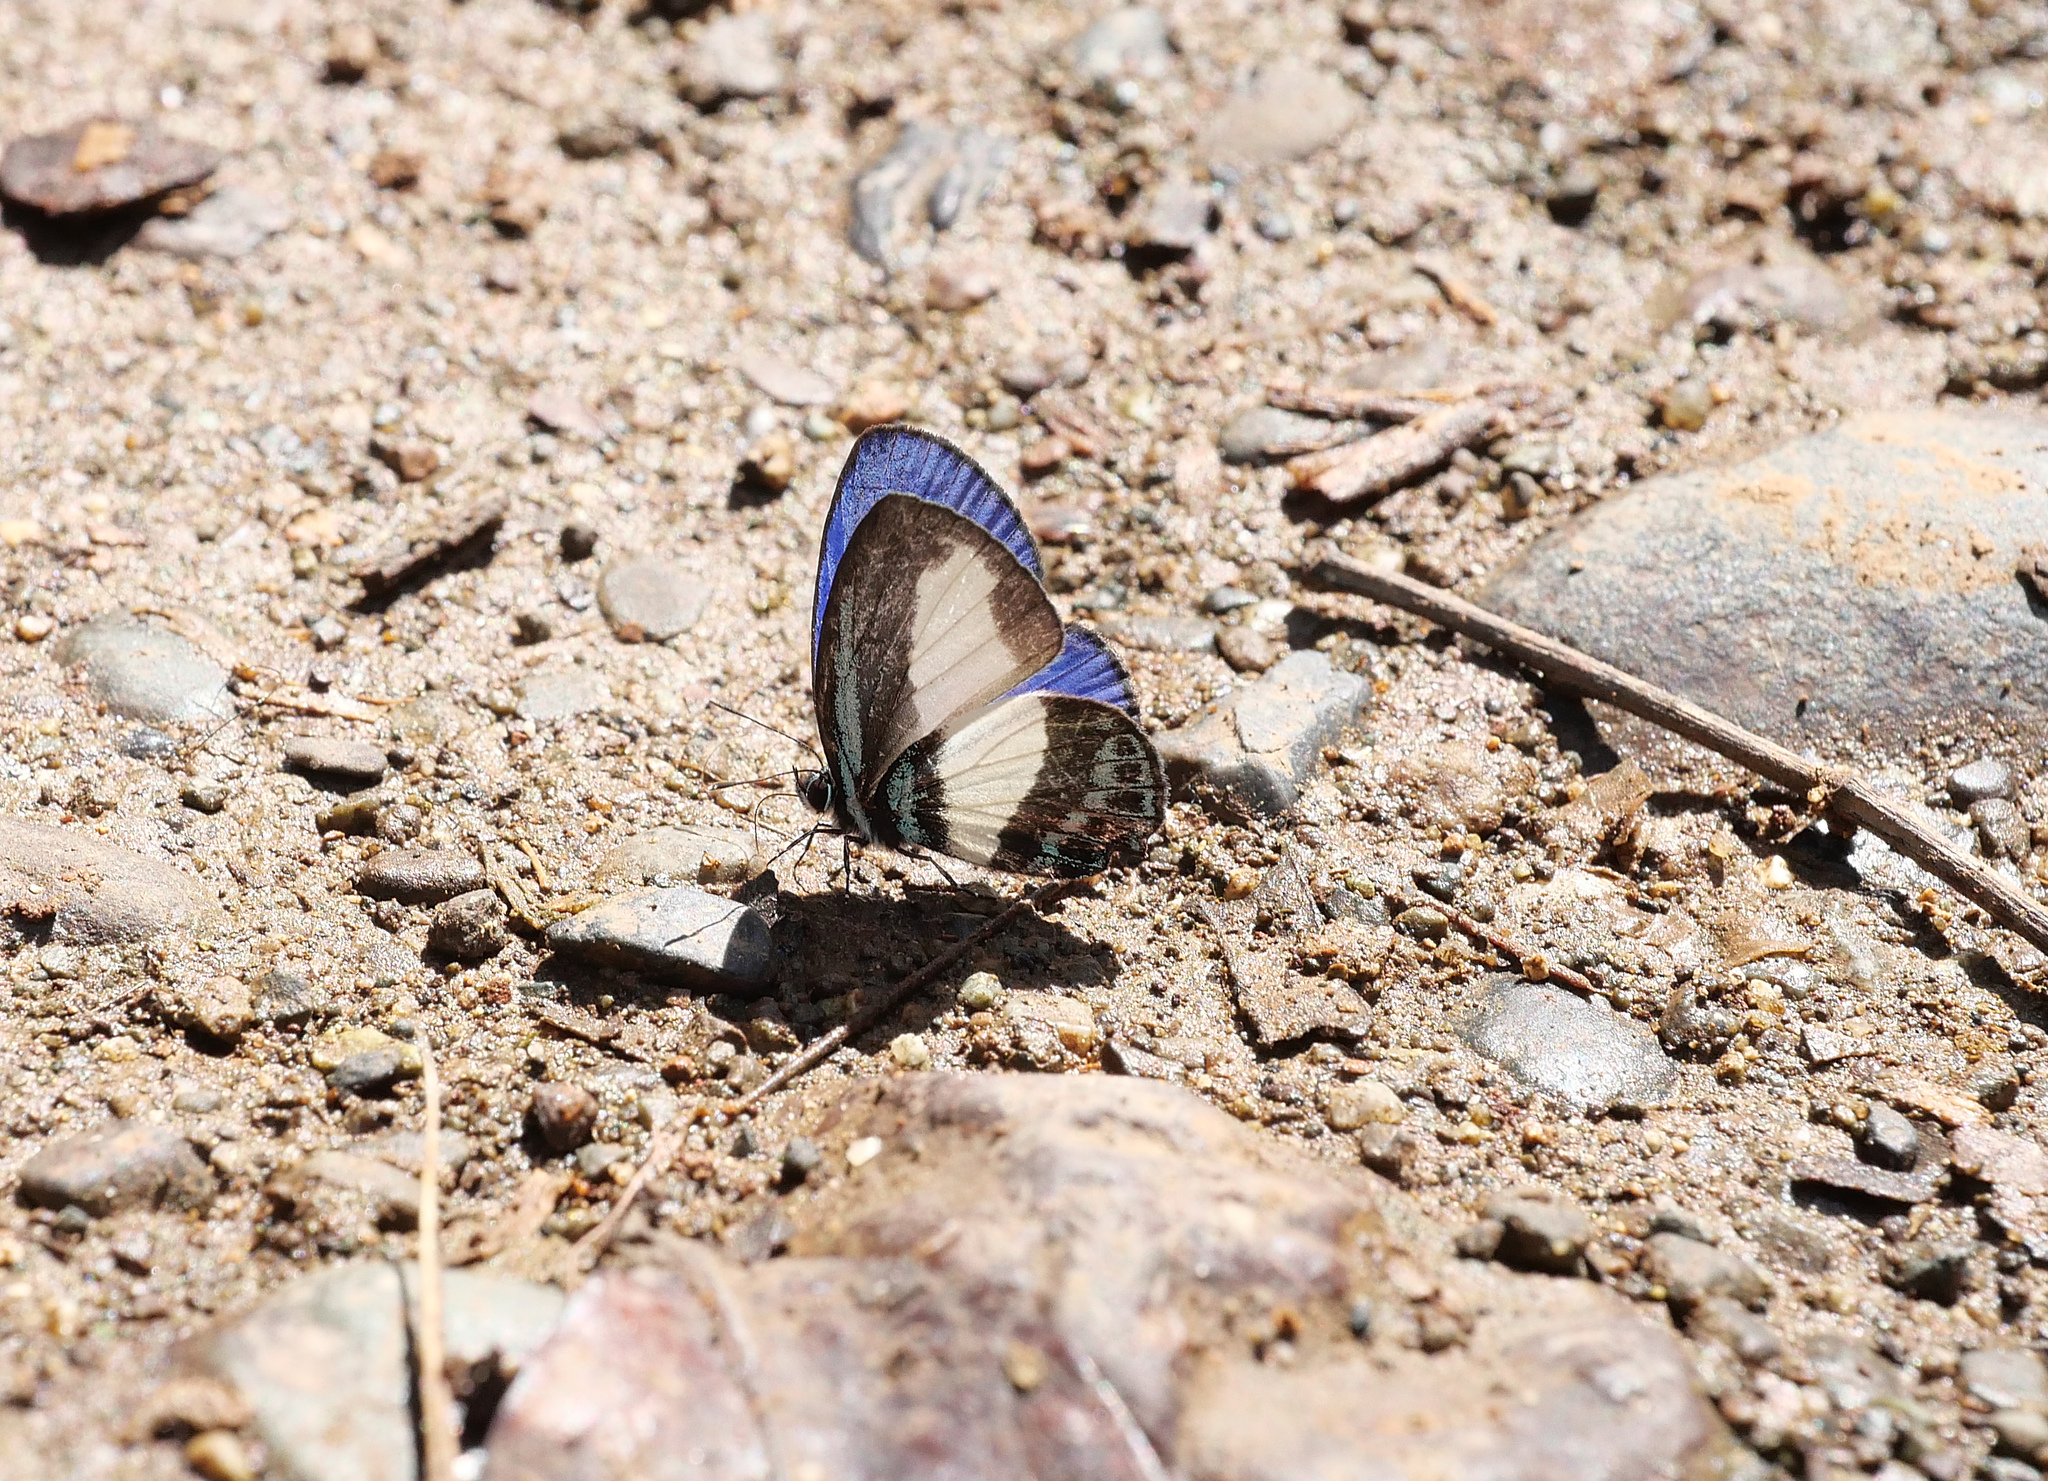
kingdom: Animalia
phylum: Arthropoda
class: Insecta
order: Lepidoptera
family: Lycaenidae
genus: Psychonotis
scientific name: Psychonotis caelius
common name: Small green banded blue
